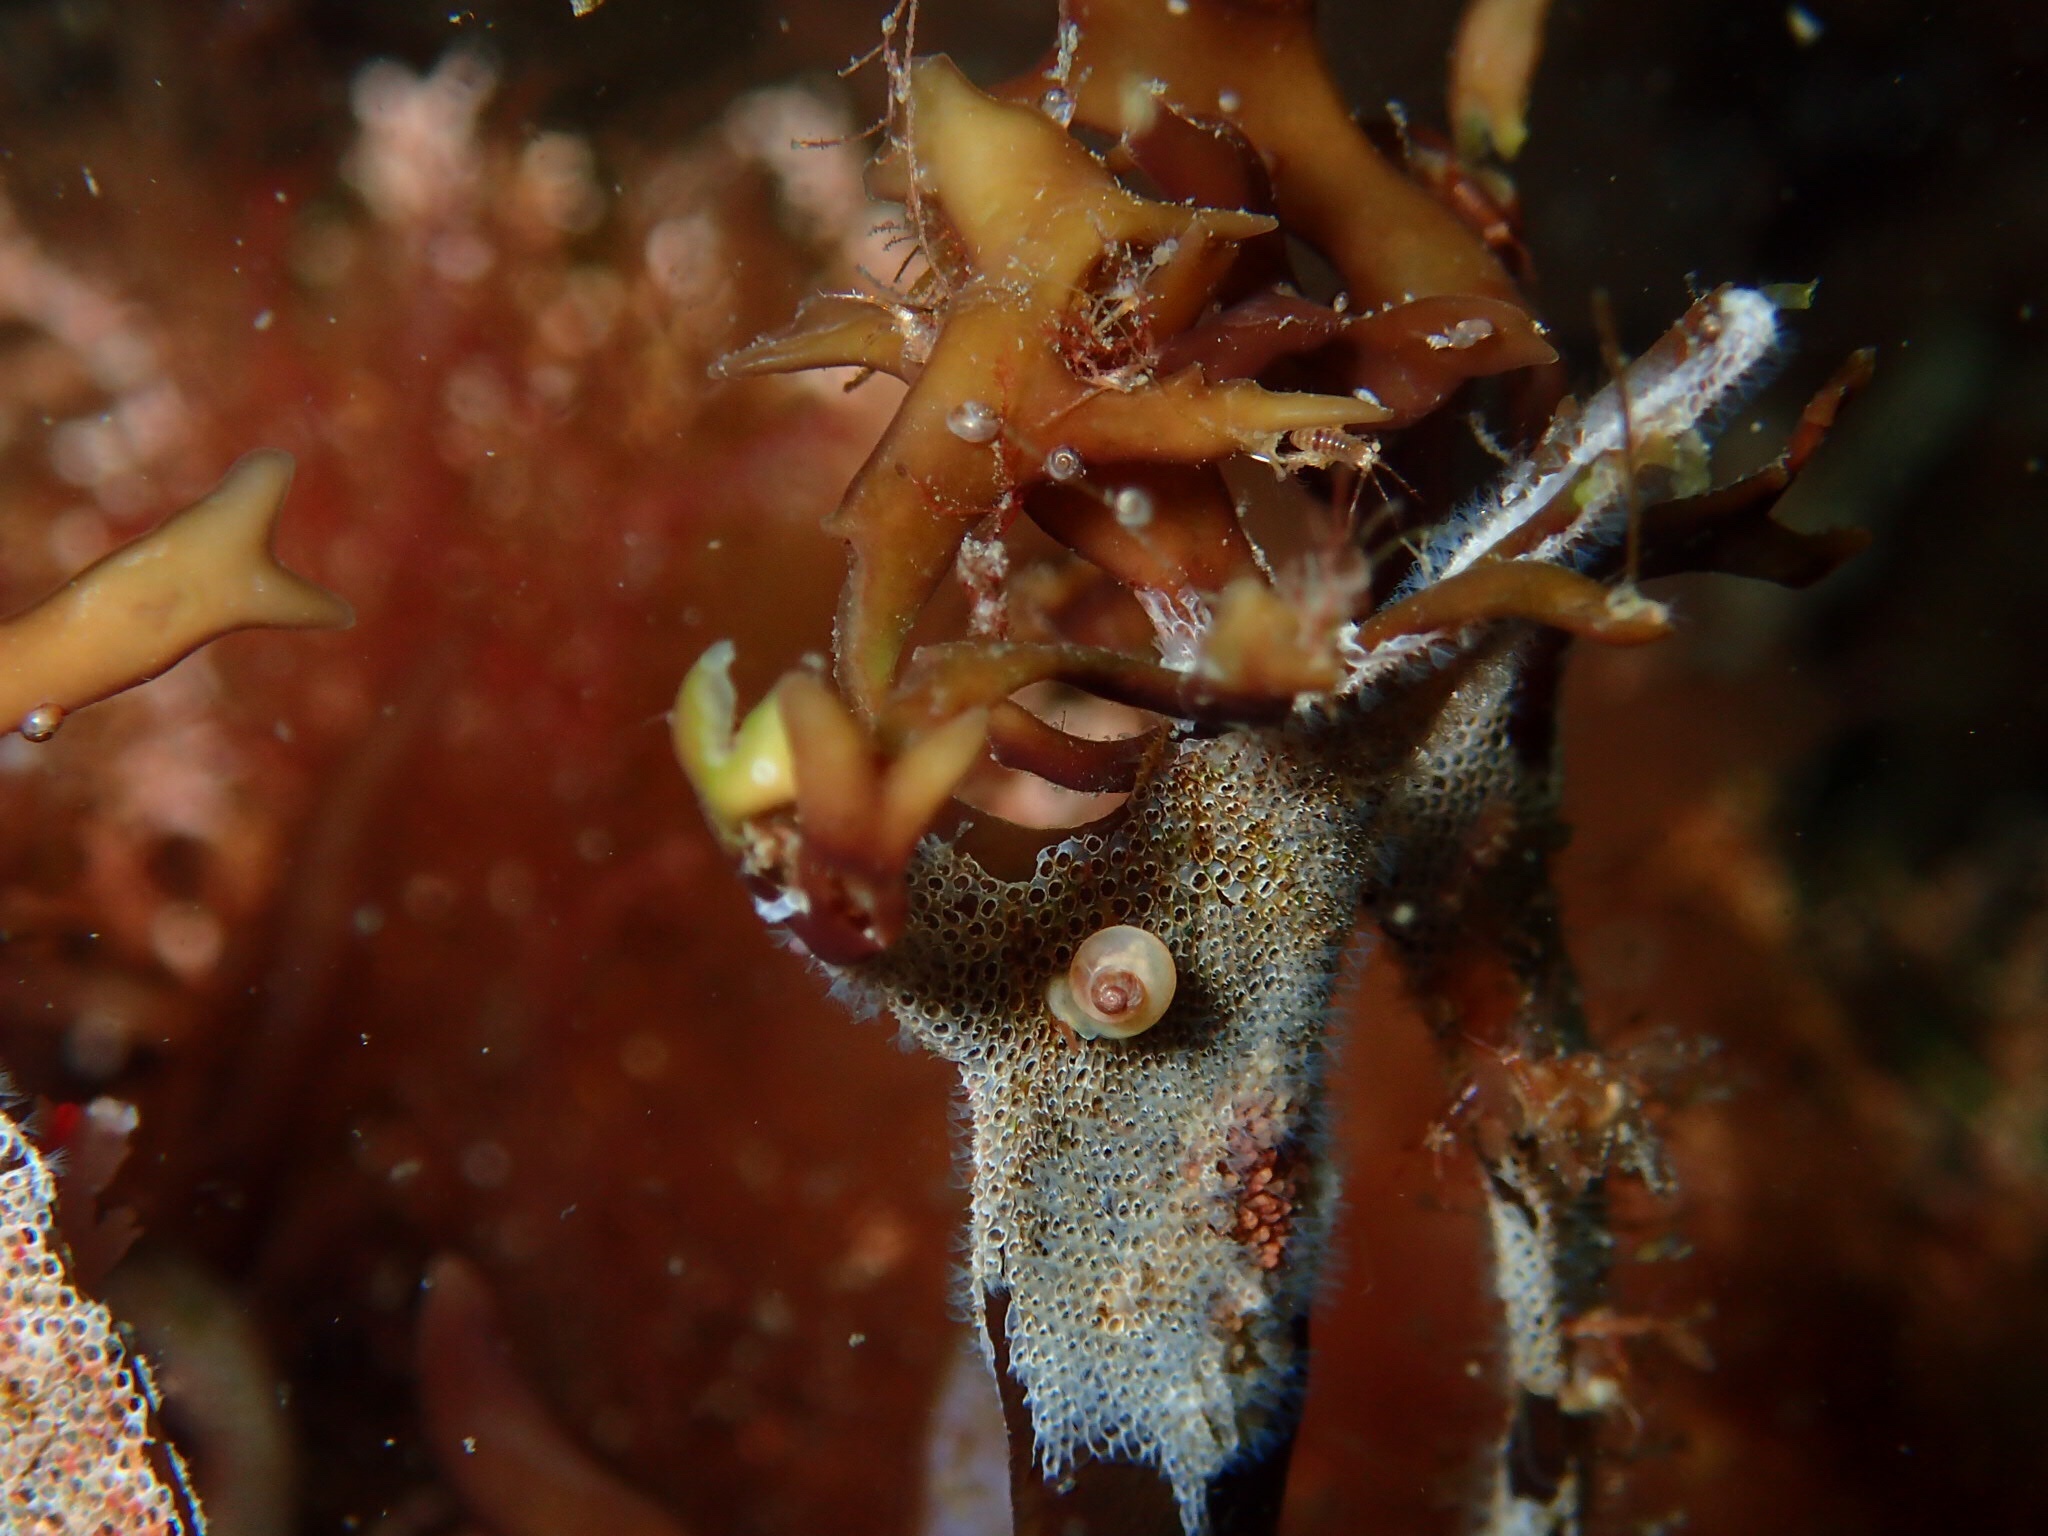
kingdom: Animalia
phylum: Bryozoa
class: Gymnolaemata
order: Cheilostomatida
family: Electridae
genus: Electra
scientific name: Electra pilosa
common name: Hairy sea-mat
